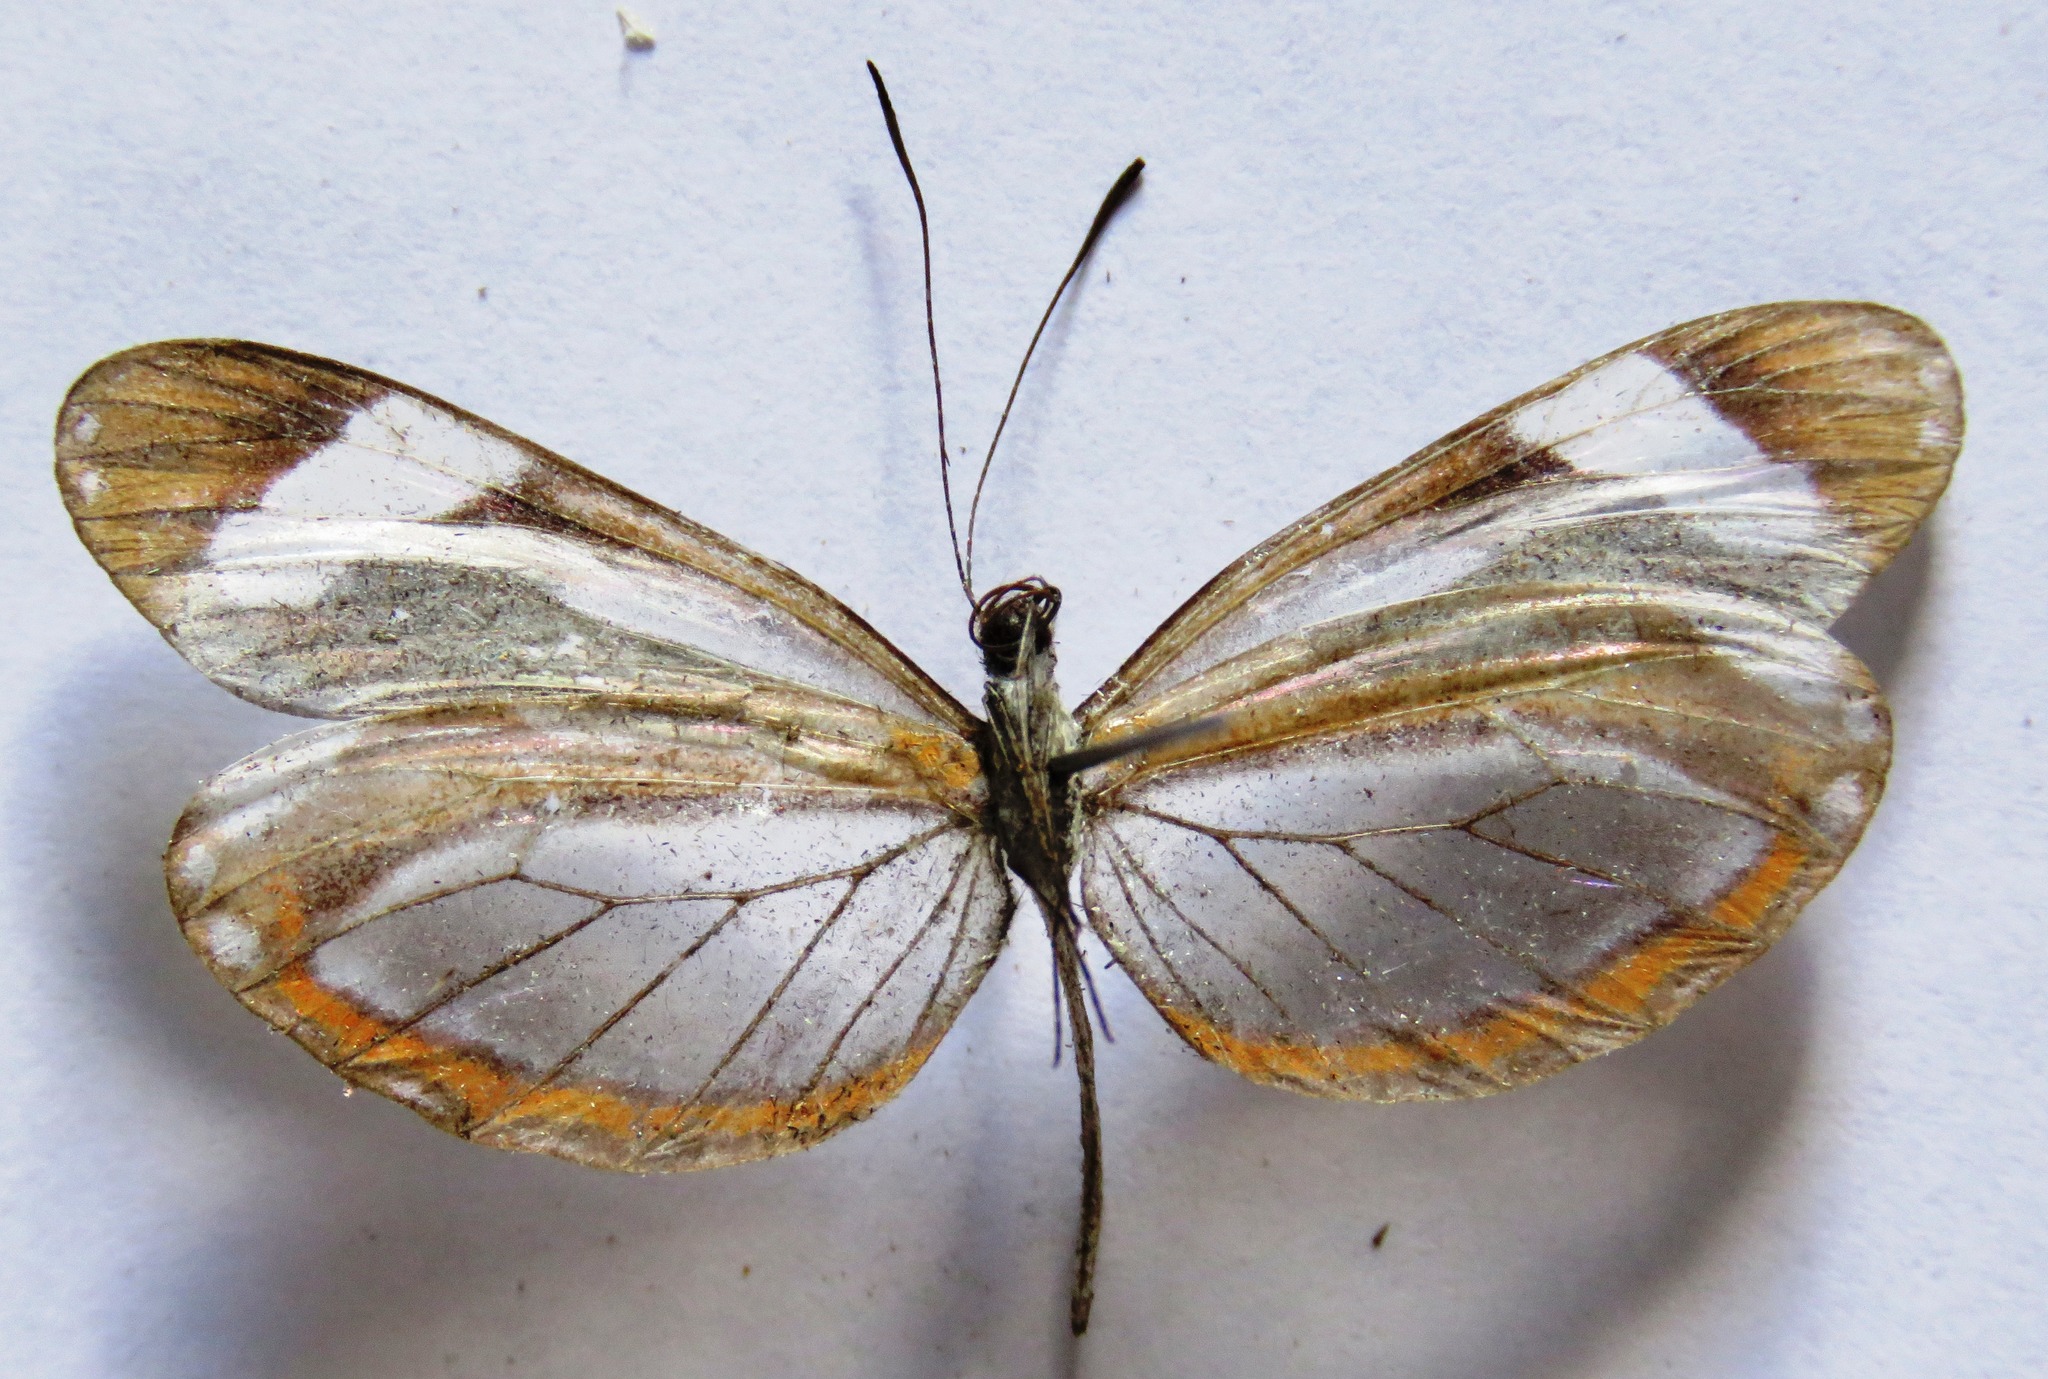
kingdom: Animalia
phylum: Arthropoda
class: Insecta
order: Lepidoptera
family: Pieridae
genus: Dismorphia
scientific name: Dismorphia theucharila
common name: Clearwing mimic-white
